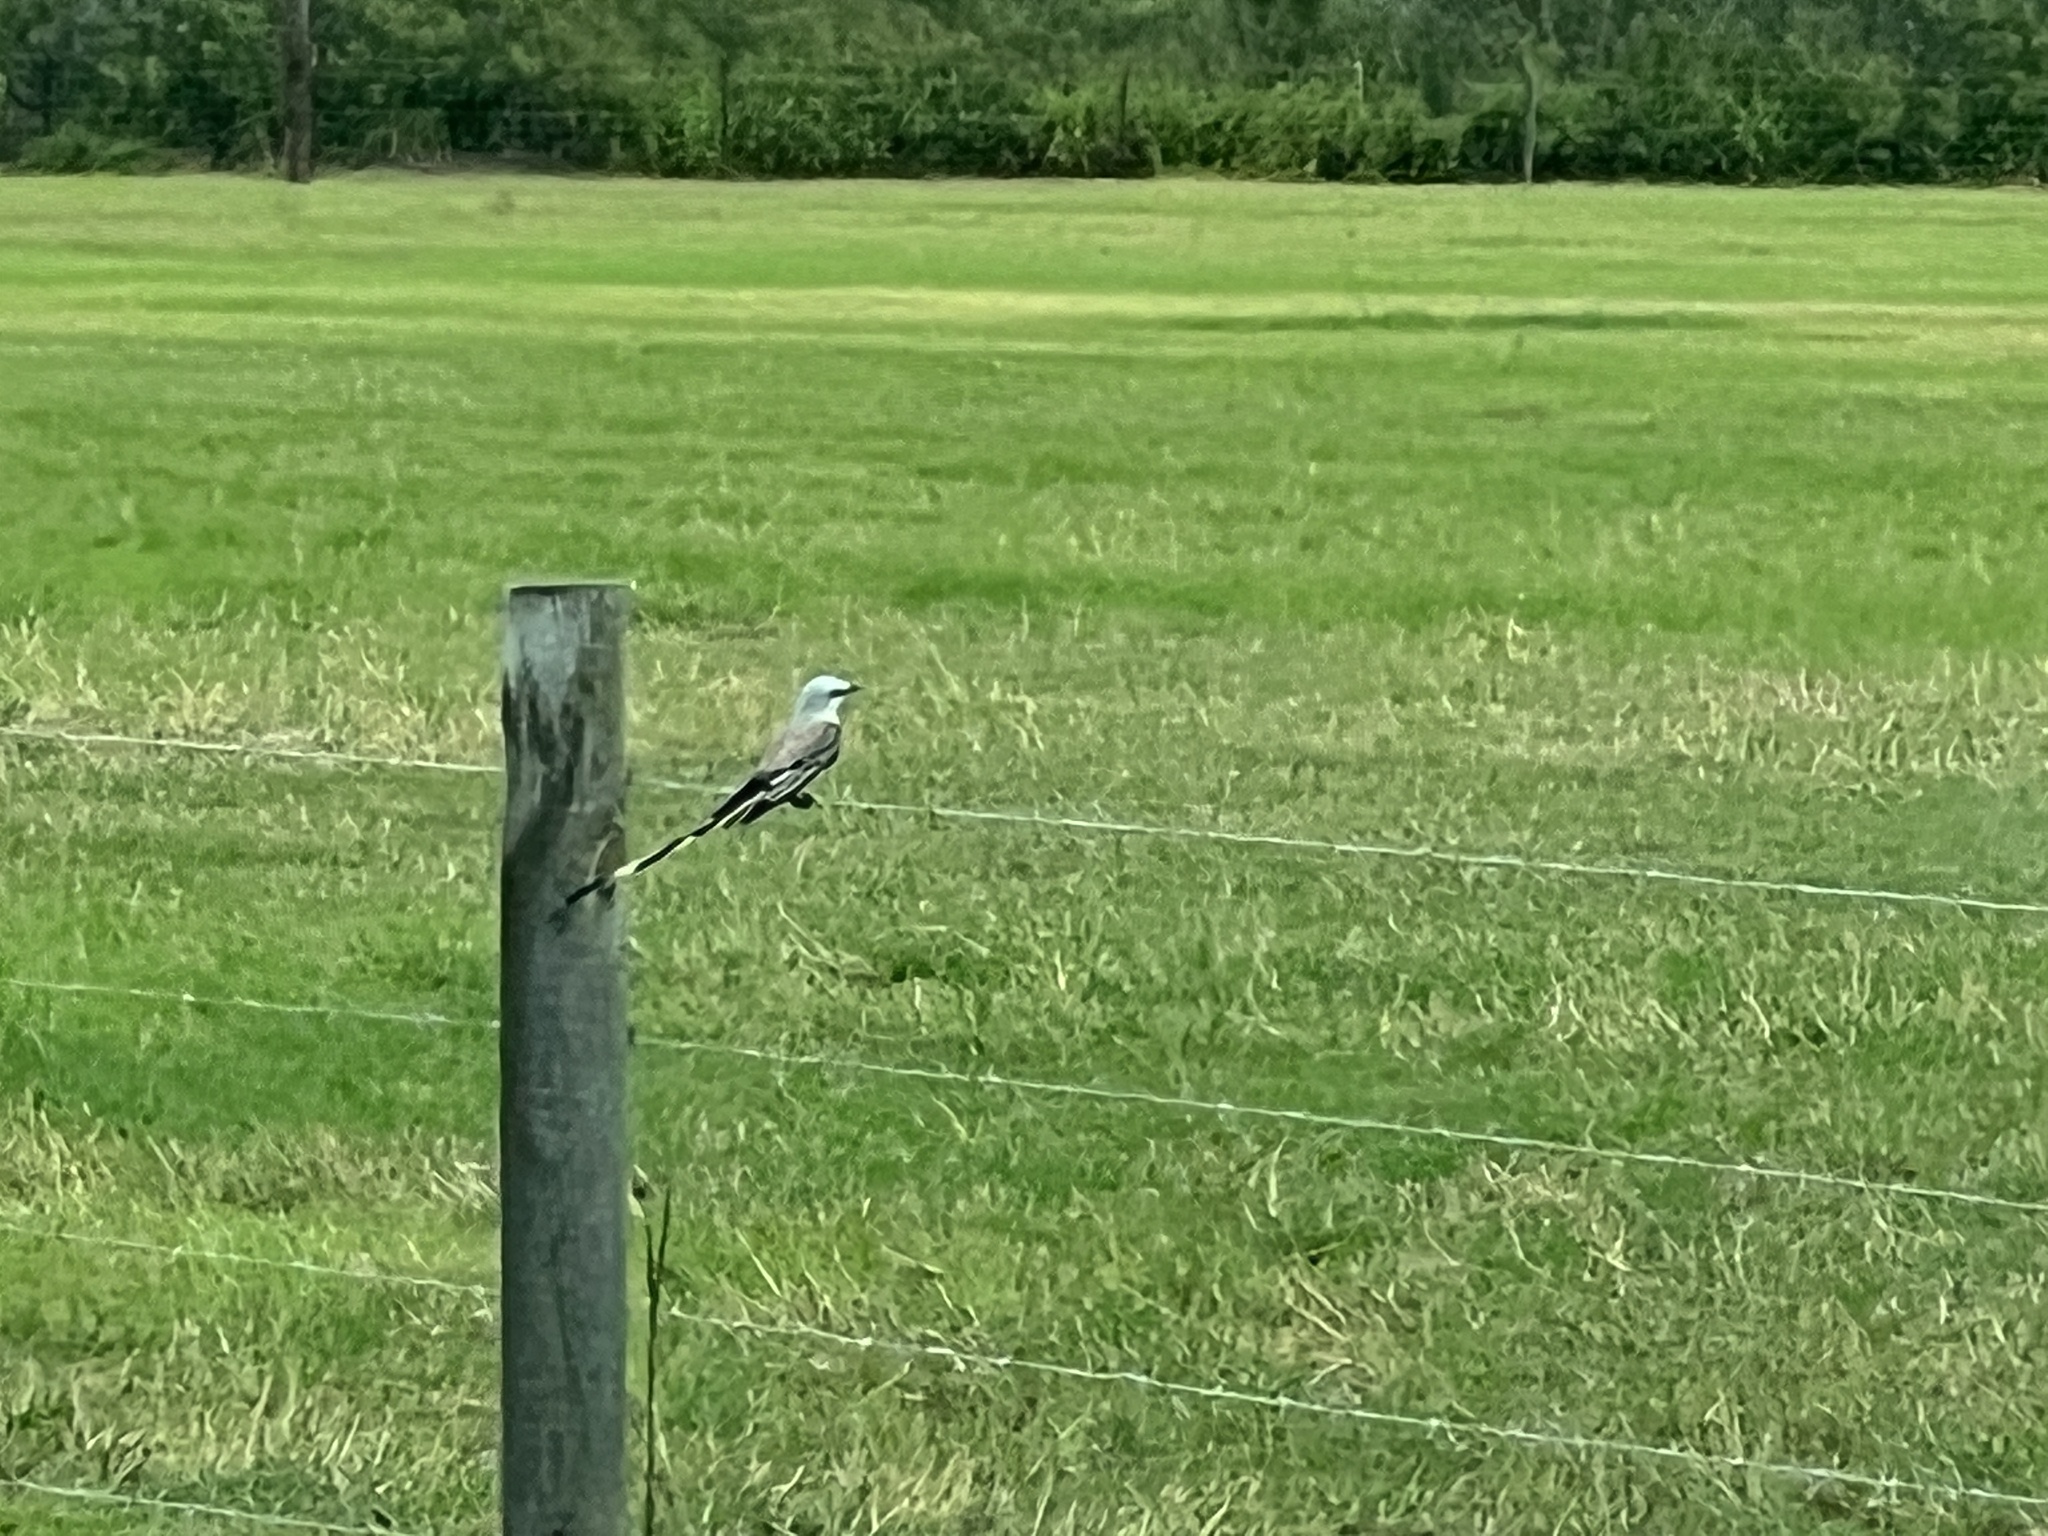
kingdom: Animalia
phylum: Chordata
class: Aves
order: Passeriformes
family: Tyrannidae
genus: Tyrannus
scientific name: Tyrannus forficatus
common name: Scissor-tailed flycatcher
